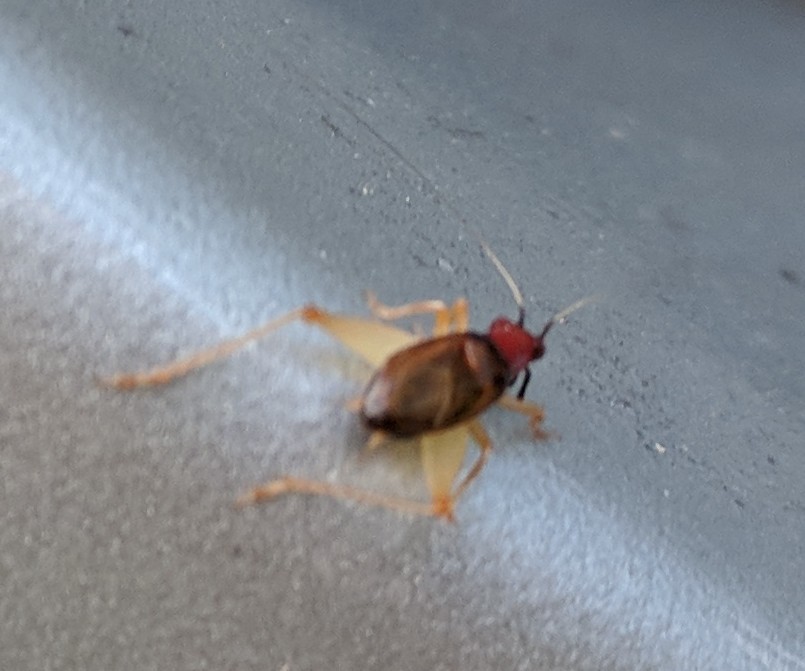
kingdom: Animalia
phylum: Arthropoda
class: Insecta
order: Orthoptera
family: Trigonidiidae
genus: Phyllopalpus
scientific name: Phyllopalpus pulchellus
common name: Handsome trig
